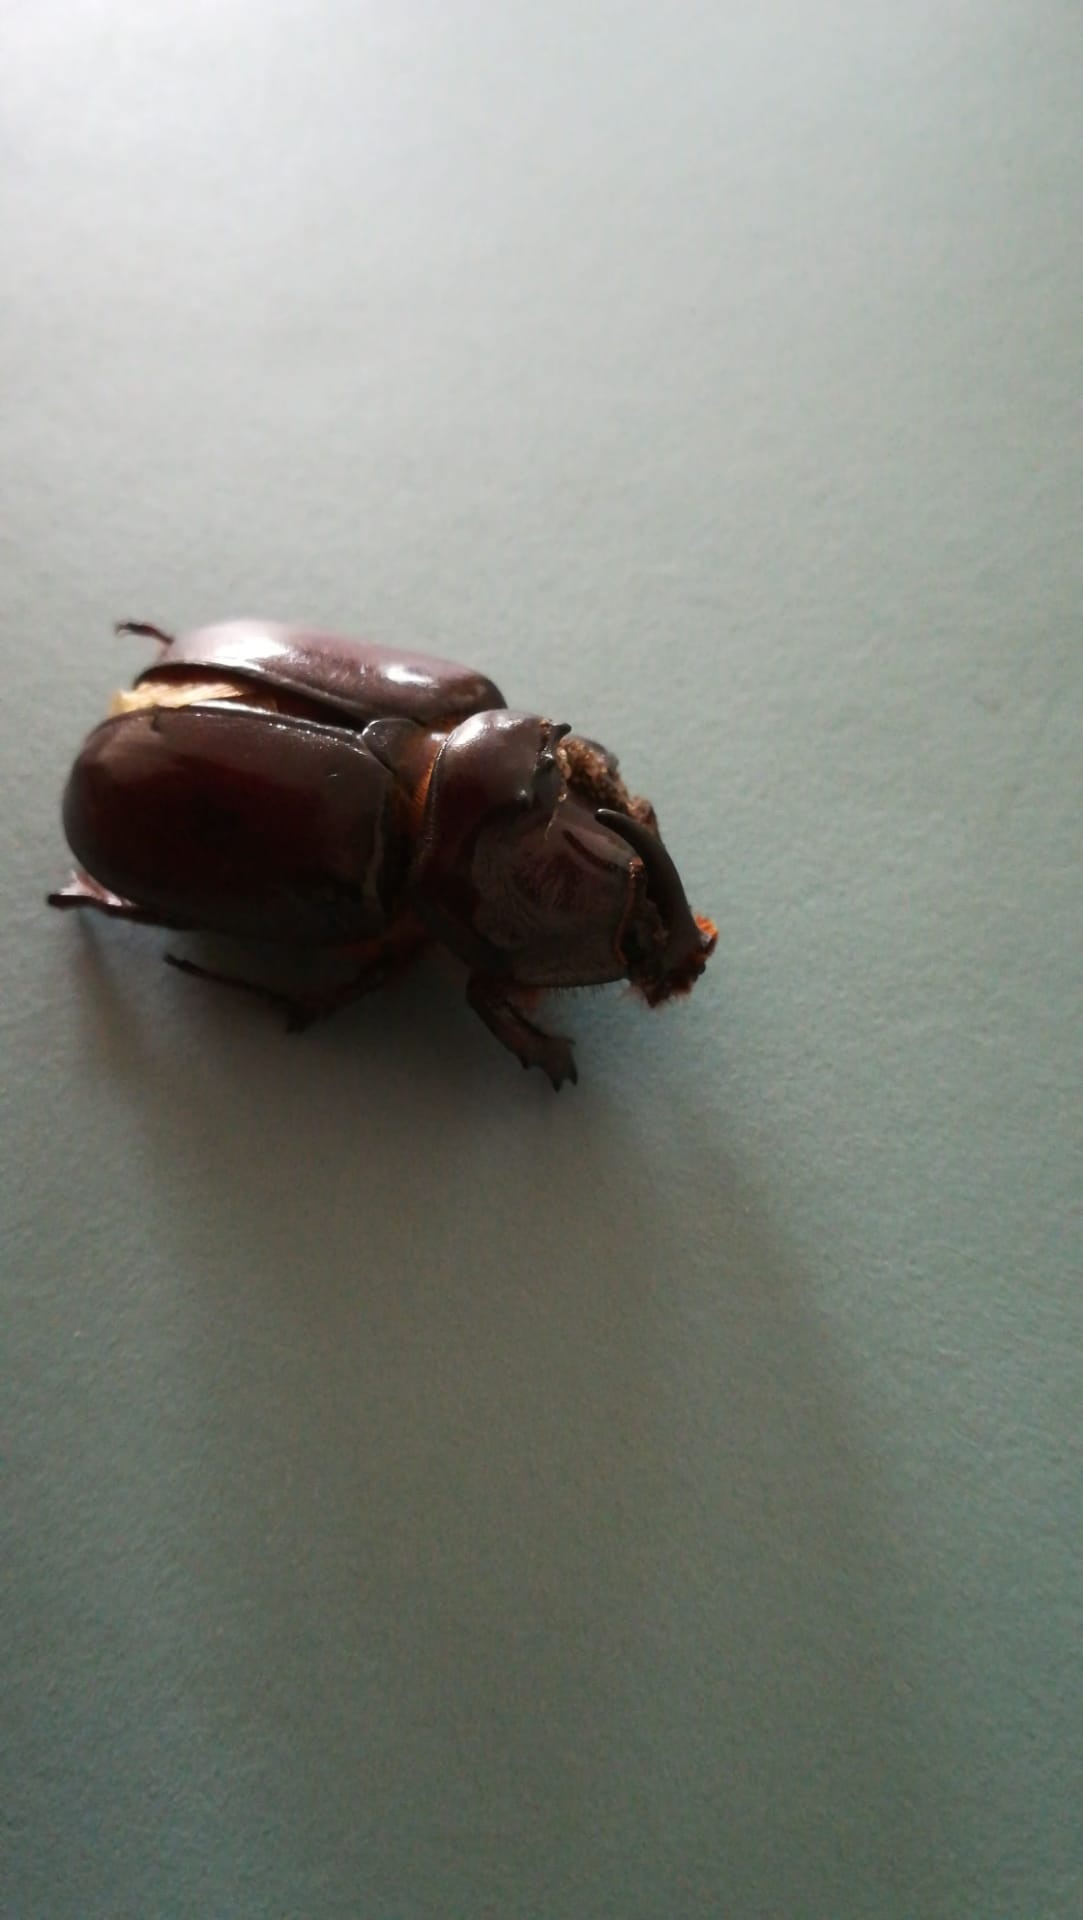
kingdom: Animalia
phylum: Arthropoda
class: Insecta
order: Coleoptera
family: Scarabaeidae
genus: Oryctes
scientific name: Oryctes nasicornis
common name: European rhinoceros beetle
